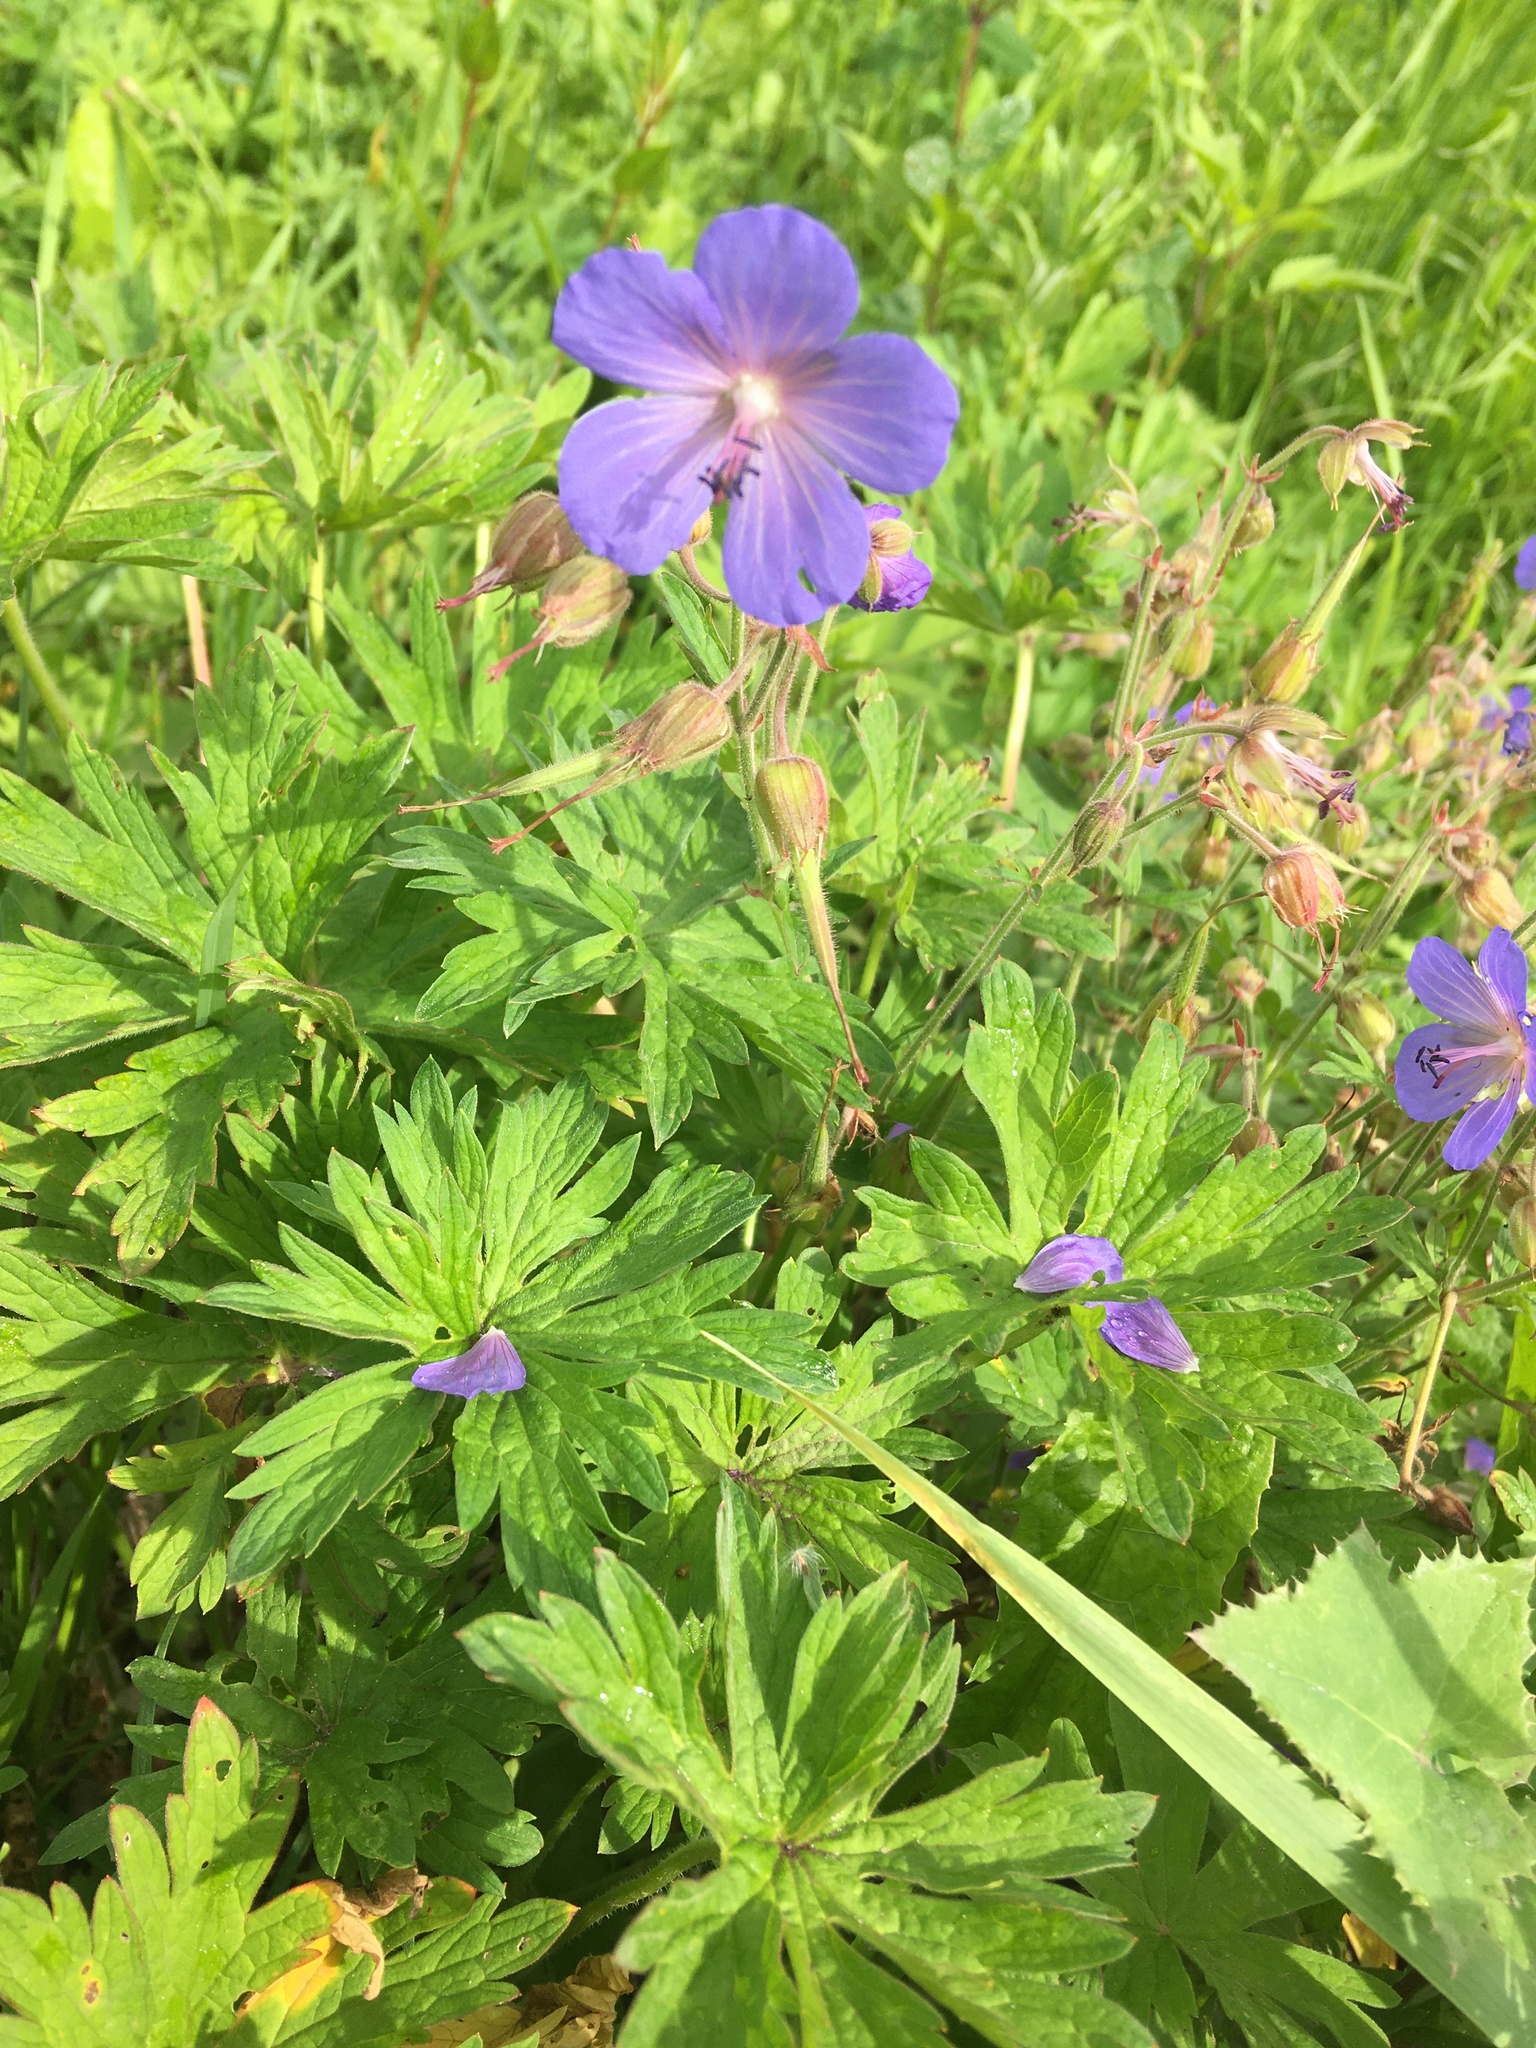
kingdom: Plantae
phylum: Tracheophyta
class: Magnoliopsida
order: Geraniales
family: Geraniaceae
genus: Geranium
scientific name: Geranium pratense
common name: Meadow crane's-bill
